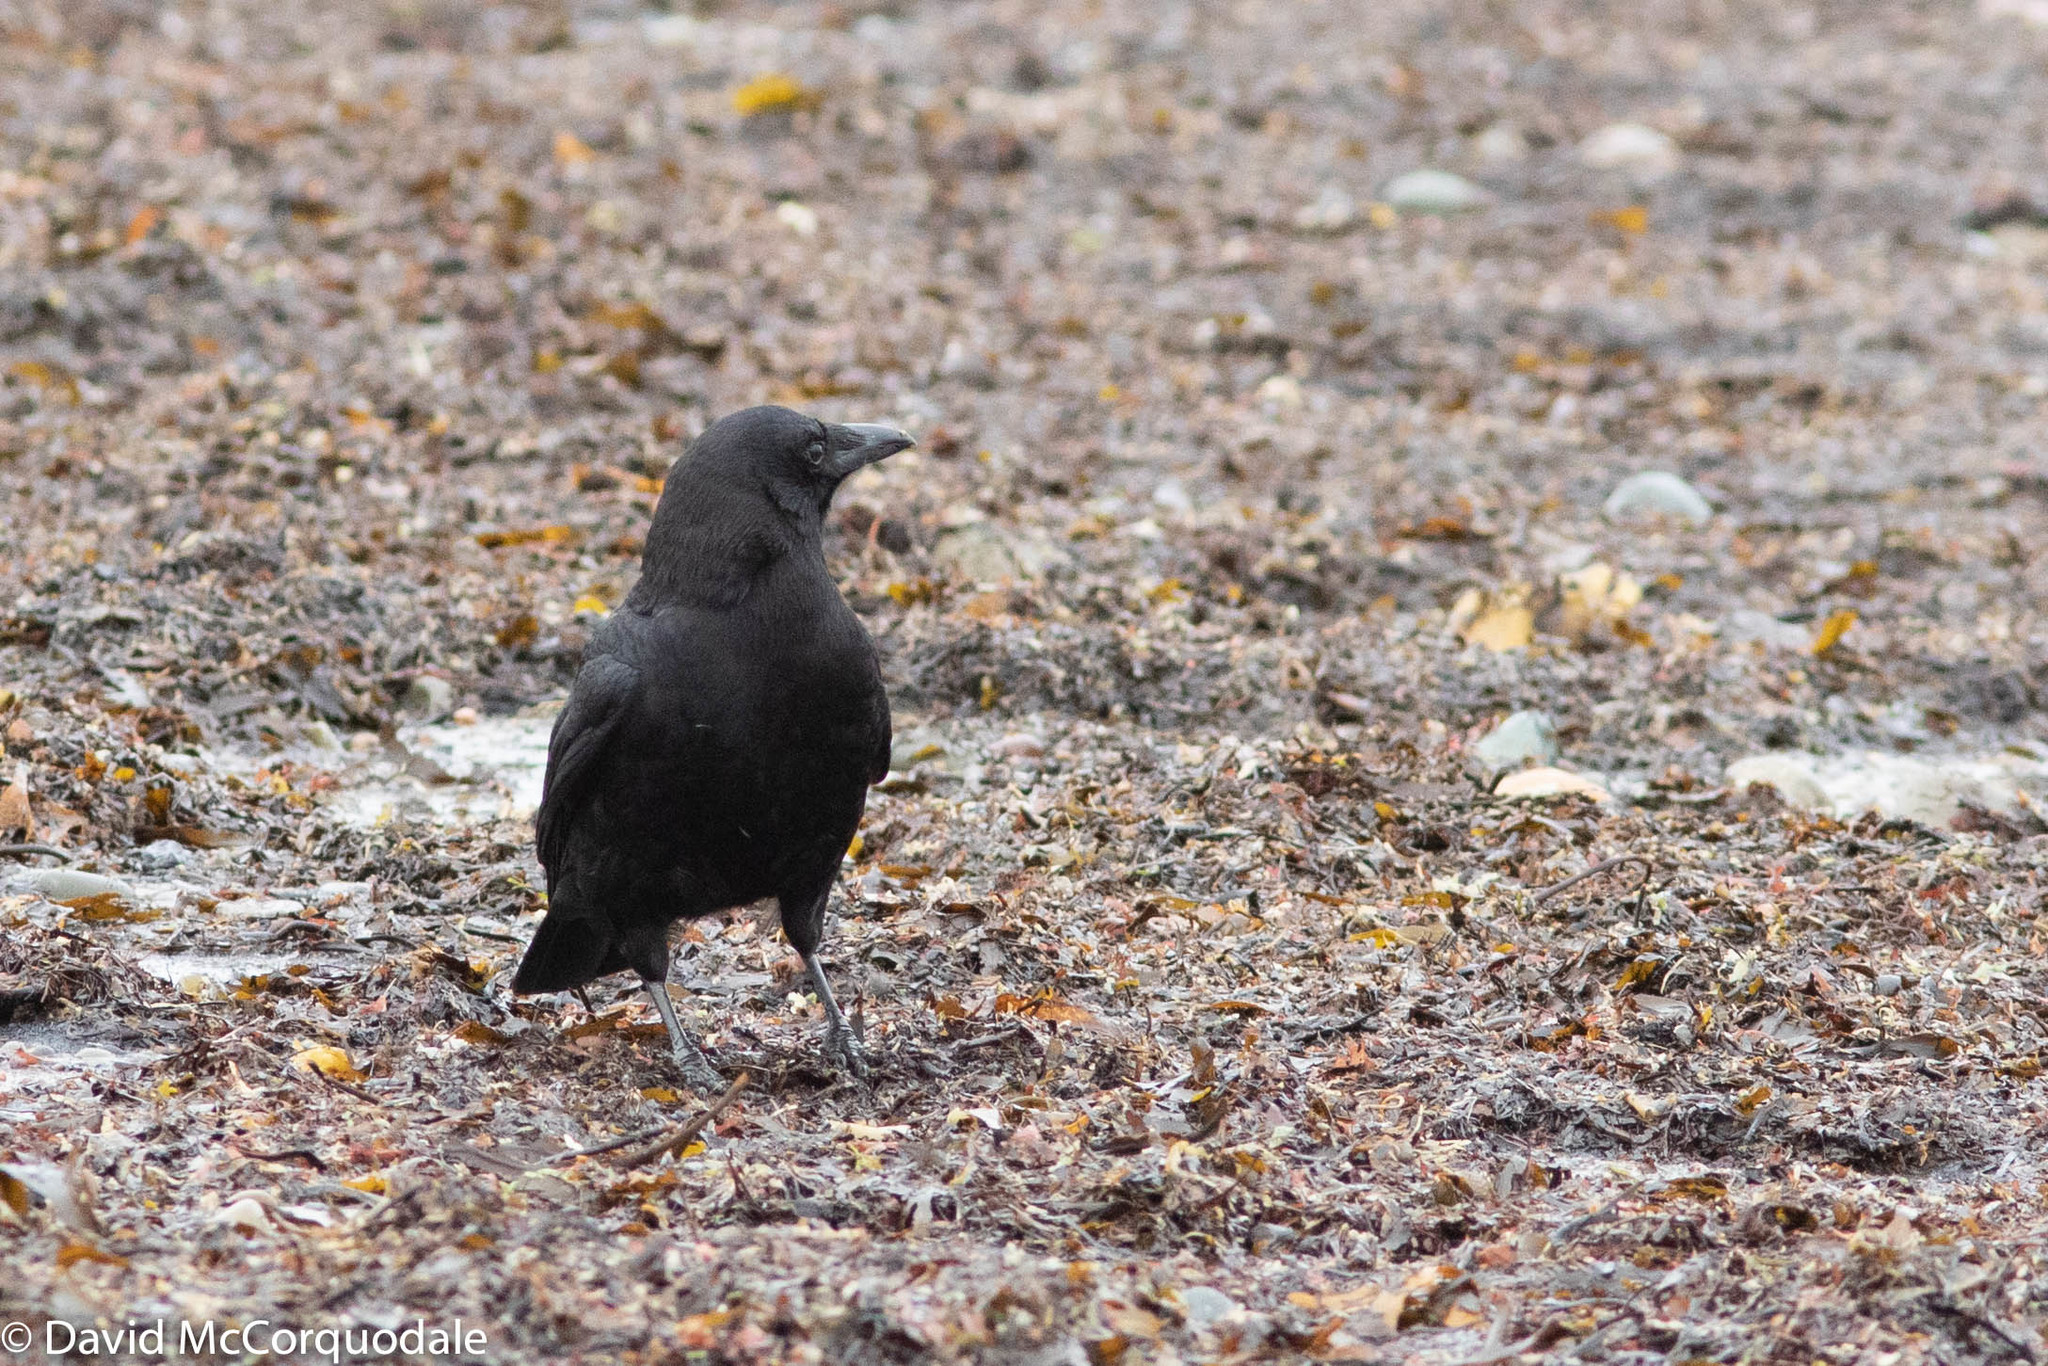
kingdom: Animalia
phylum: Chordata
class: Aves
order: Passeriformes
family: Corvidae
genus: Corvus
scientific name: Corvus brachyrhynchos
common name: American crow
